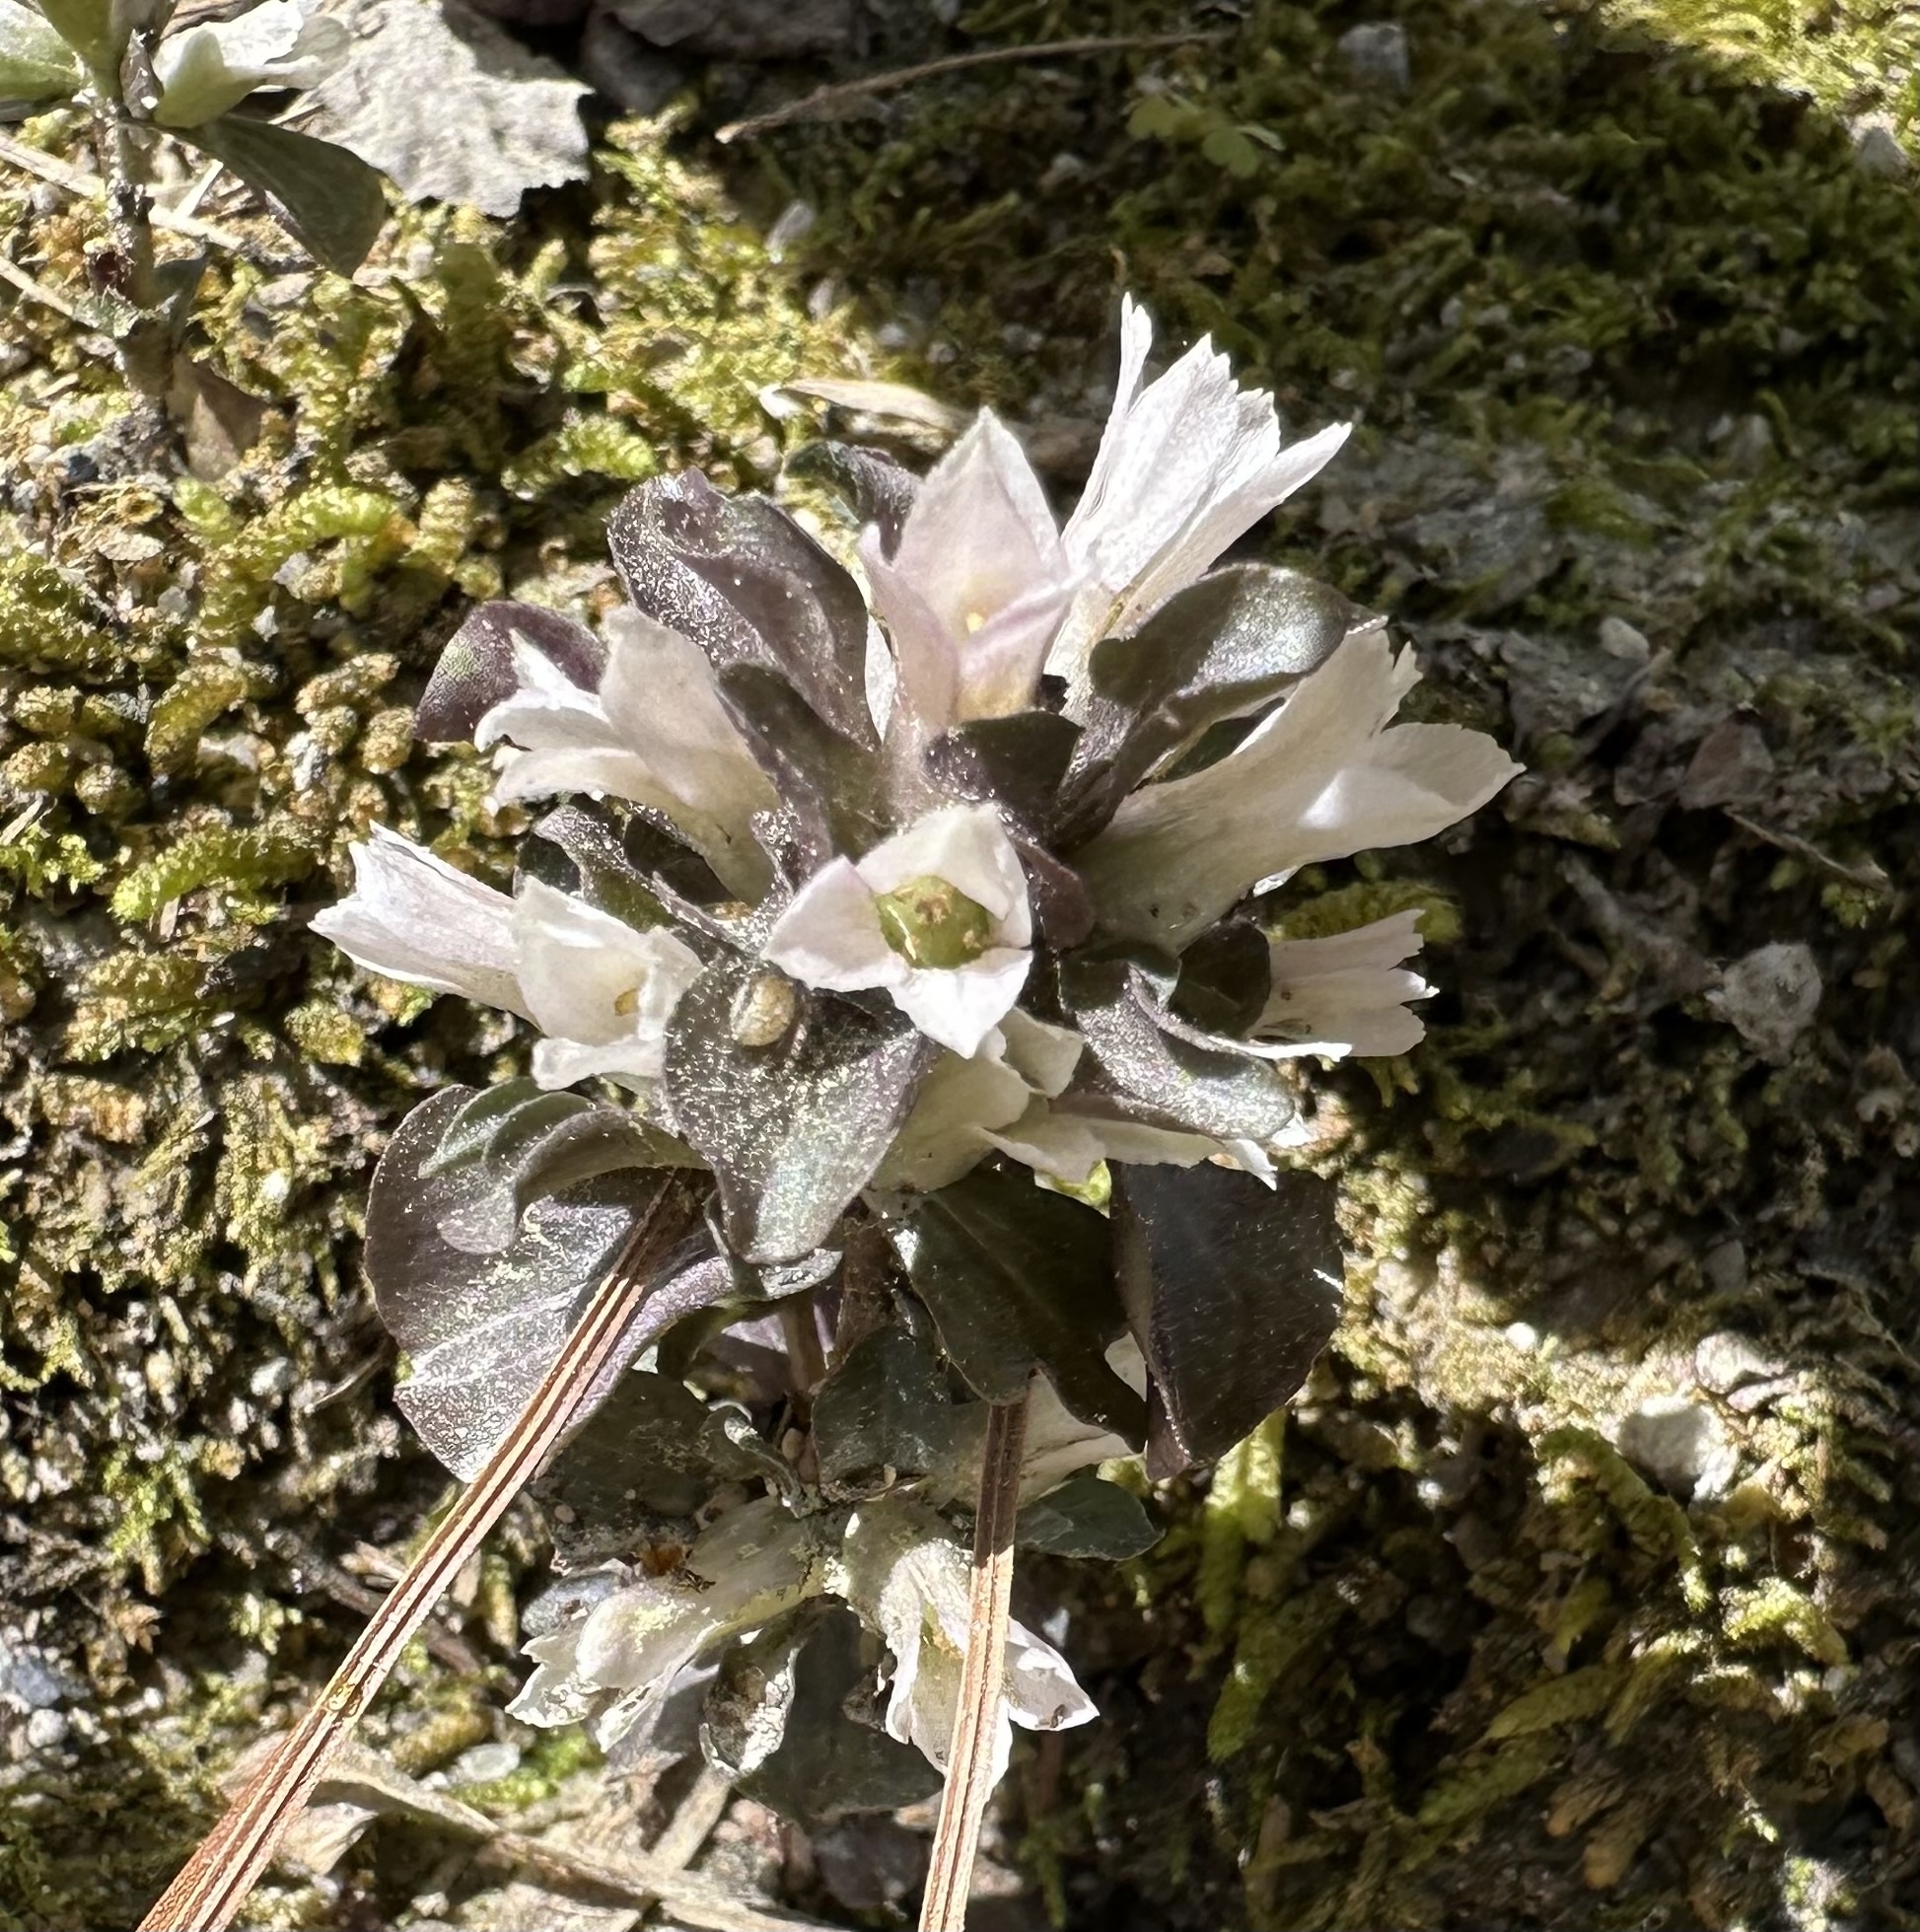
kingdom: Plantae
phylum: Tracheophyta
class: Magnoliopsida
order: Gentianales
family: Gentianaceae
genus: Obolaria
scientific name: Obolaria virginica
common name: Pennywort
